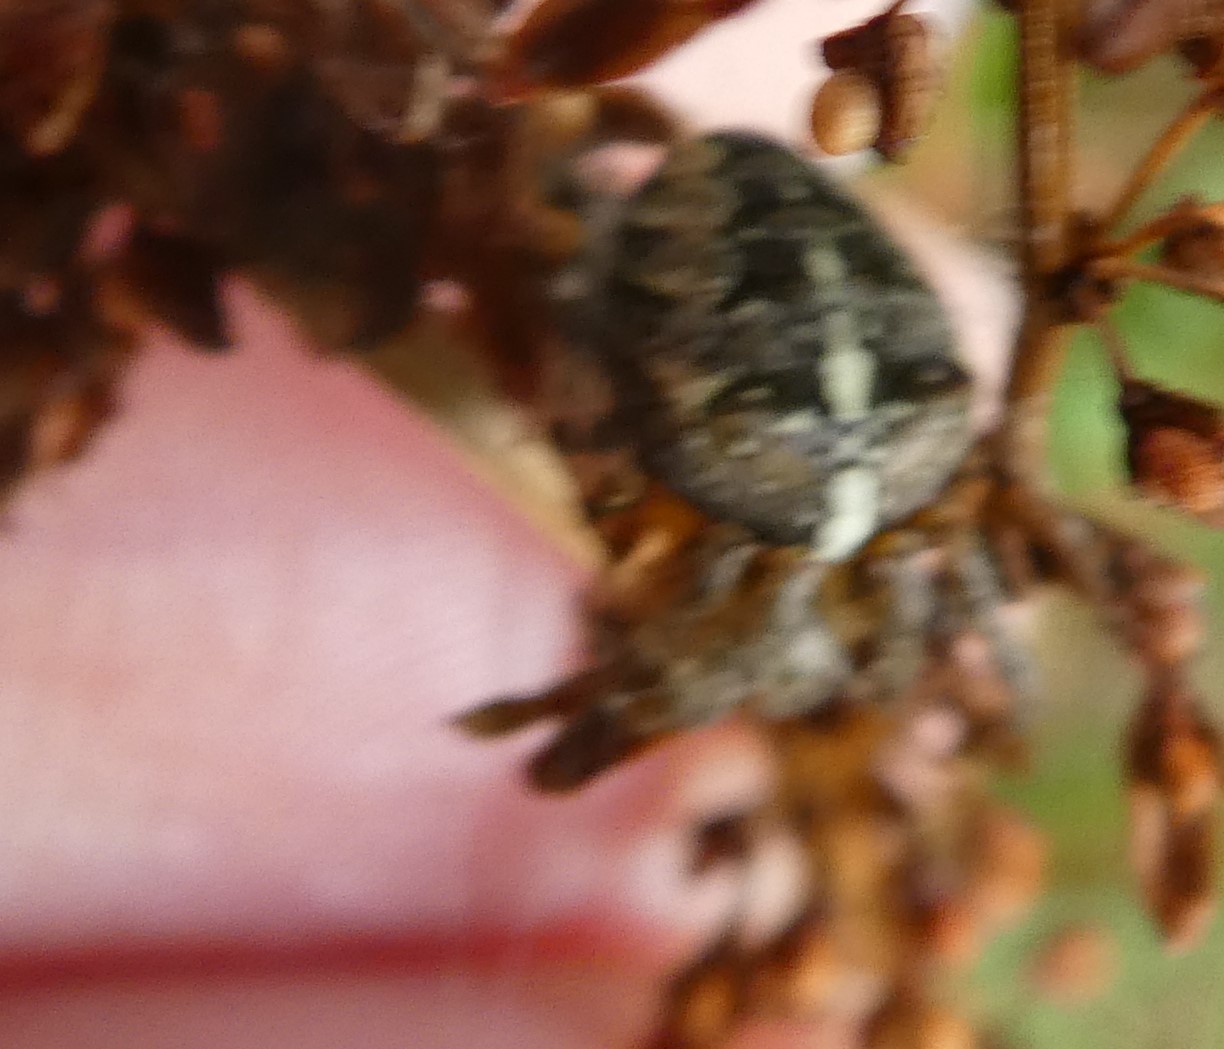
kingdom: Animalia
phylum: Arthropoda
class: Arachnida
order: Araneae
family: Araneidae
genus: Araneus
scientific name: Araneus diadematus
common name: Cross orbweaver
